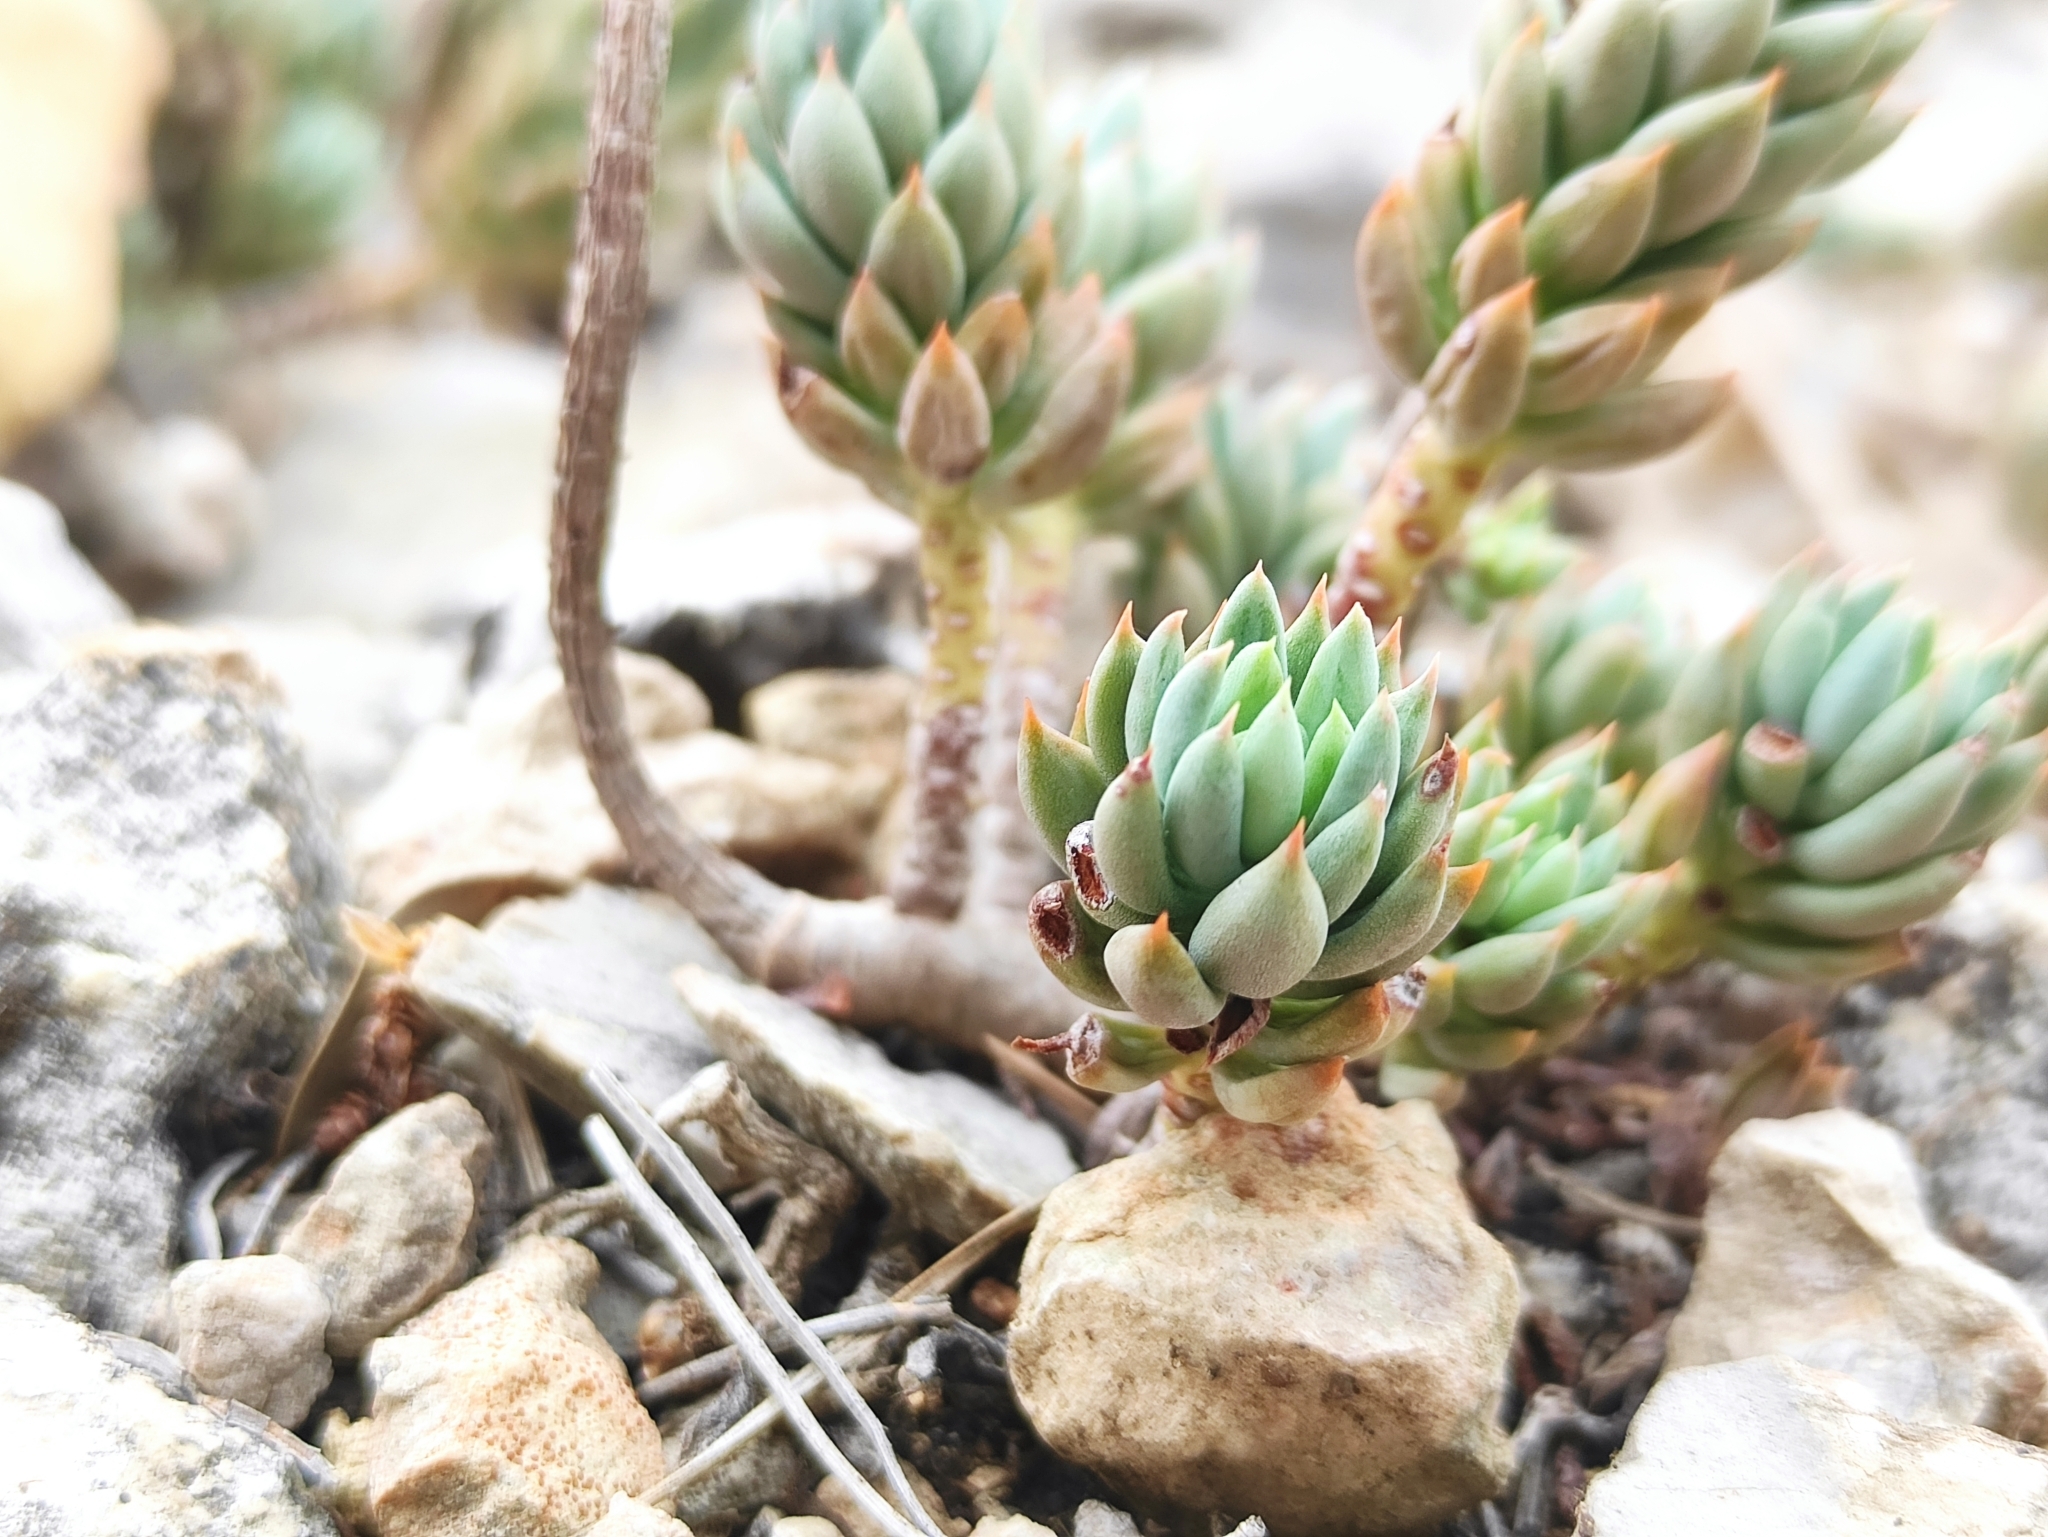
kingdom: Plantae
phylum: Tracheophyta
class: Magnoliopsida
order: Saxifragales
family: Crassulaceae
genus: Petrosedum
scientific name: Petrosedum sediforme
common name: Pale stonecrop
